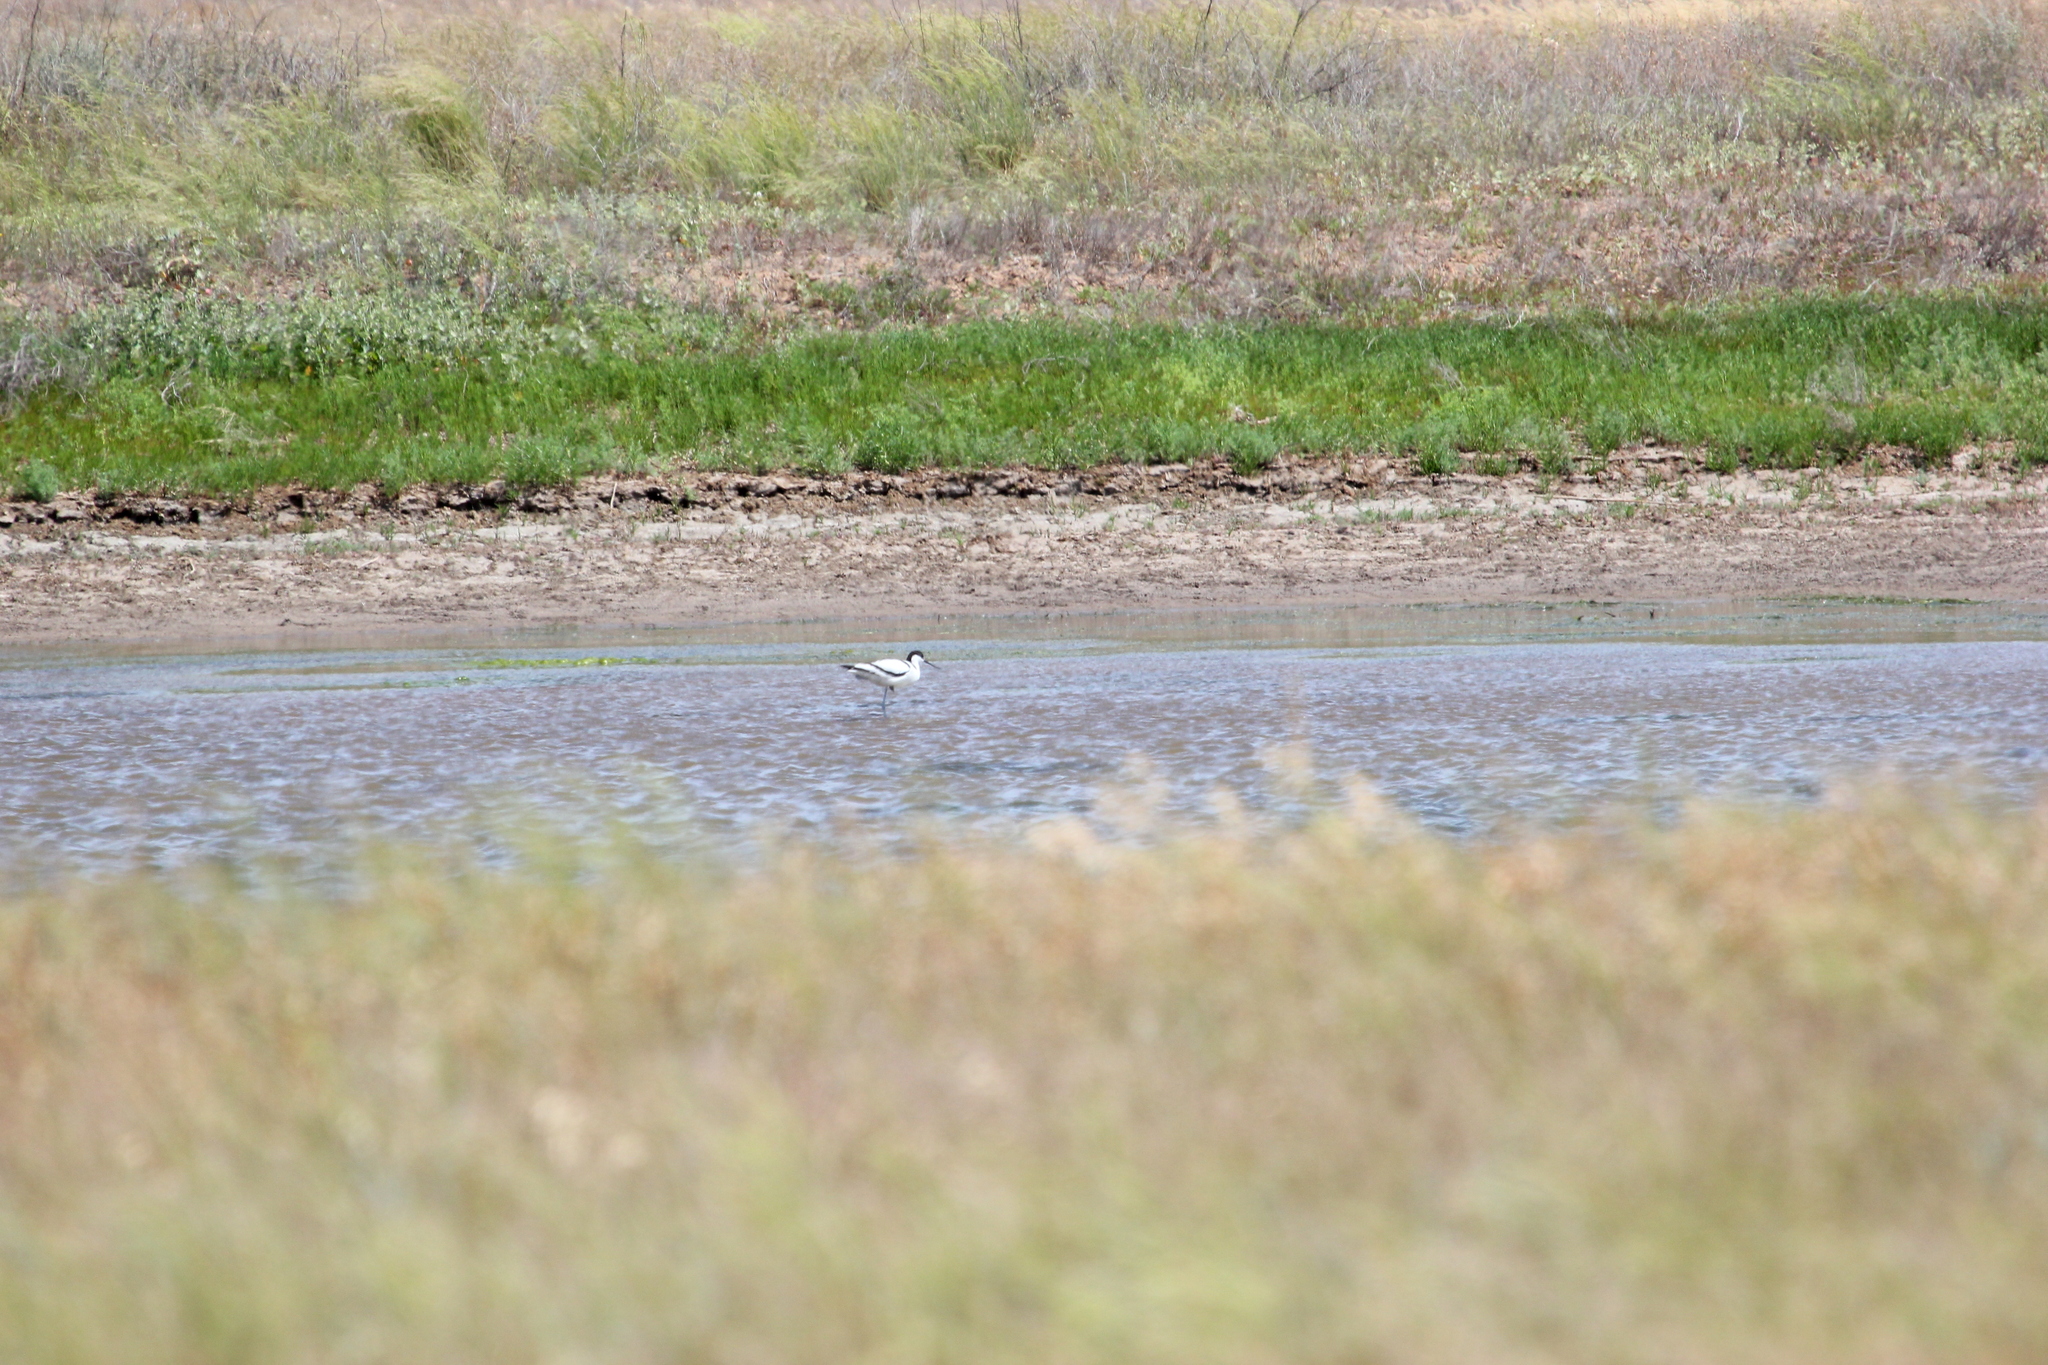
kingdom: Animalia
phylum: Chordata
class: Aves
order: Charadriiformes
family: Recurvirostridae
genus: Recurvirostra
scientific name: Recurvirostra avosetta
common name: Pied avocet
